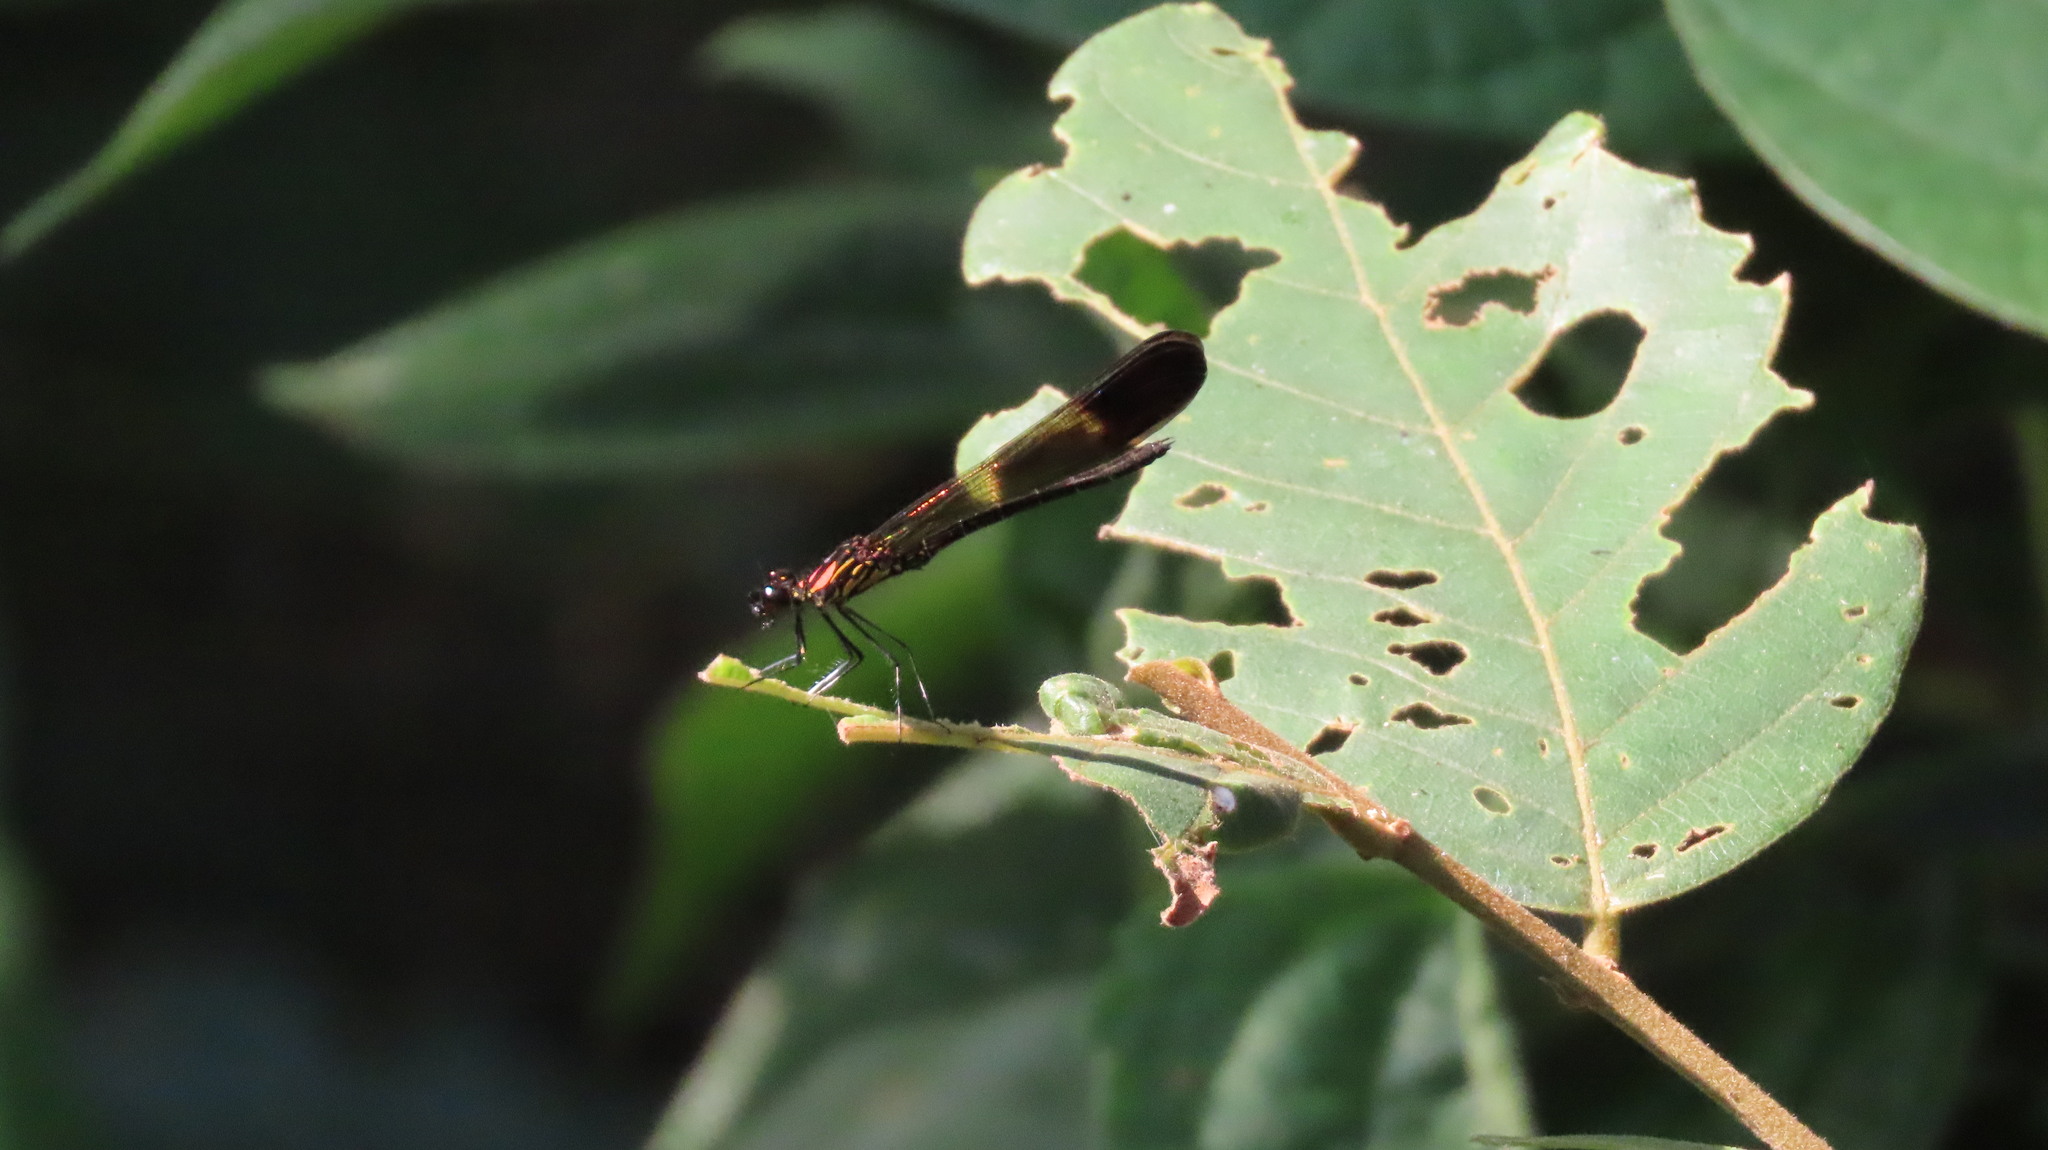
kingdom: Animalia
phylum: Arthropoda
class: Insecta
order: Odonata
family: Chlorocyphidae
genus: Heliocypha
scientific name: Heliocypha bisignata
